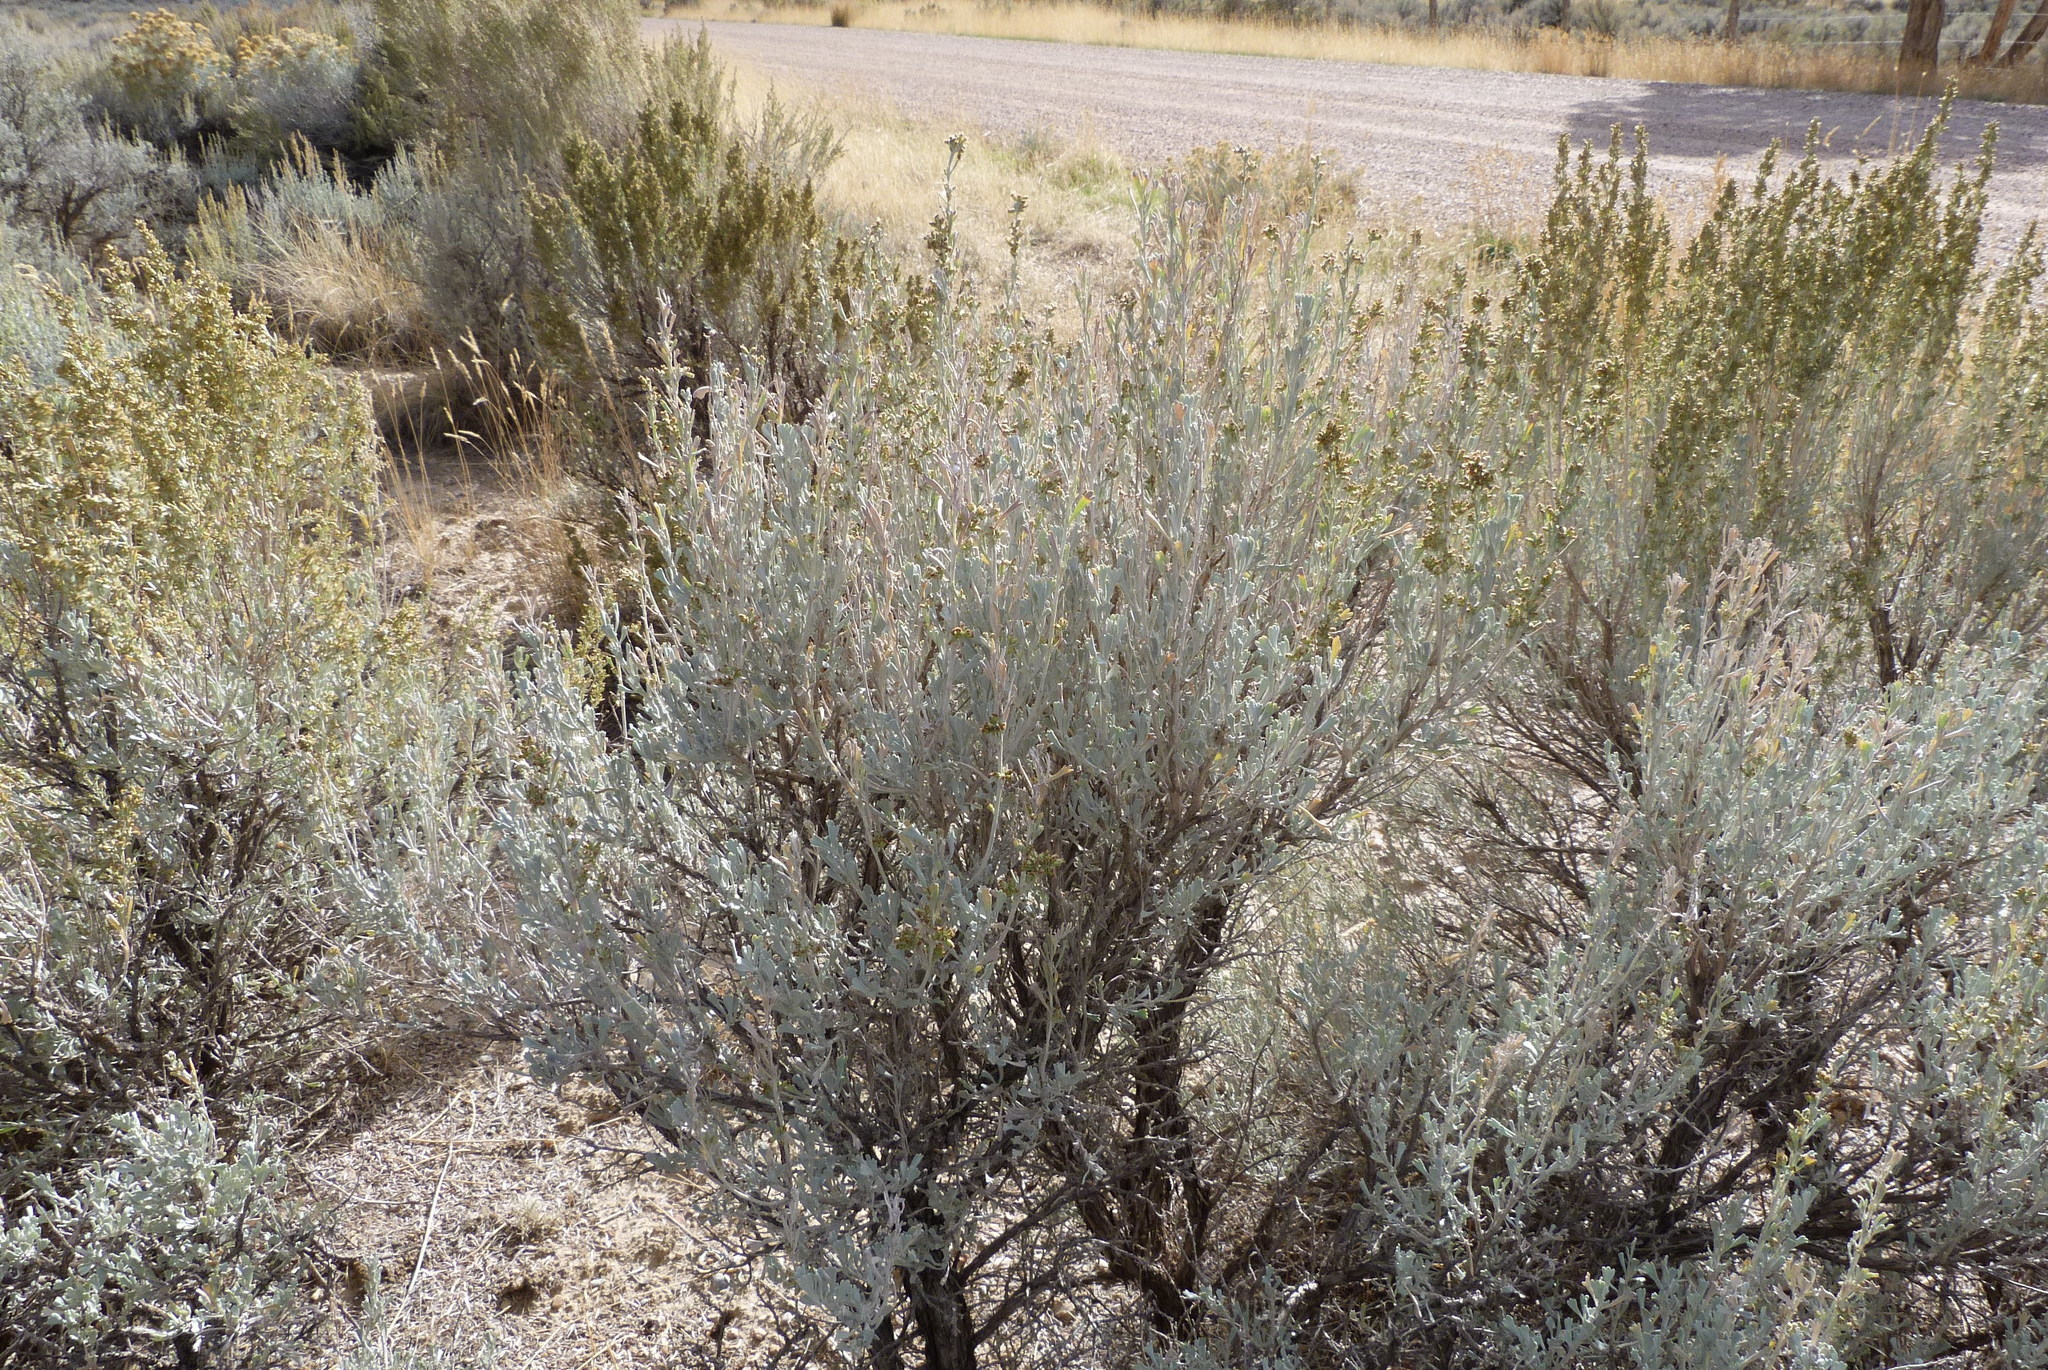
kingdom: Plantae
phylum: Tracheophyta
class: Magnoliopsida
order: Asterales
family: Asteraceae
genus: Artemisia
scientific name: Artemisia tridentata
